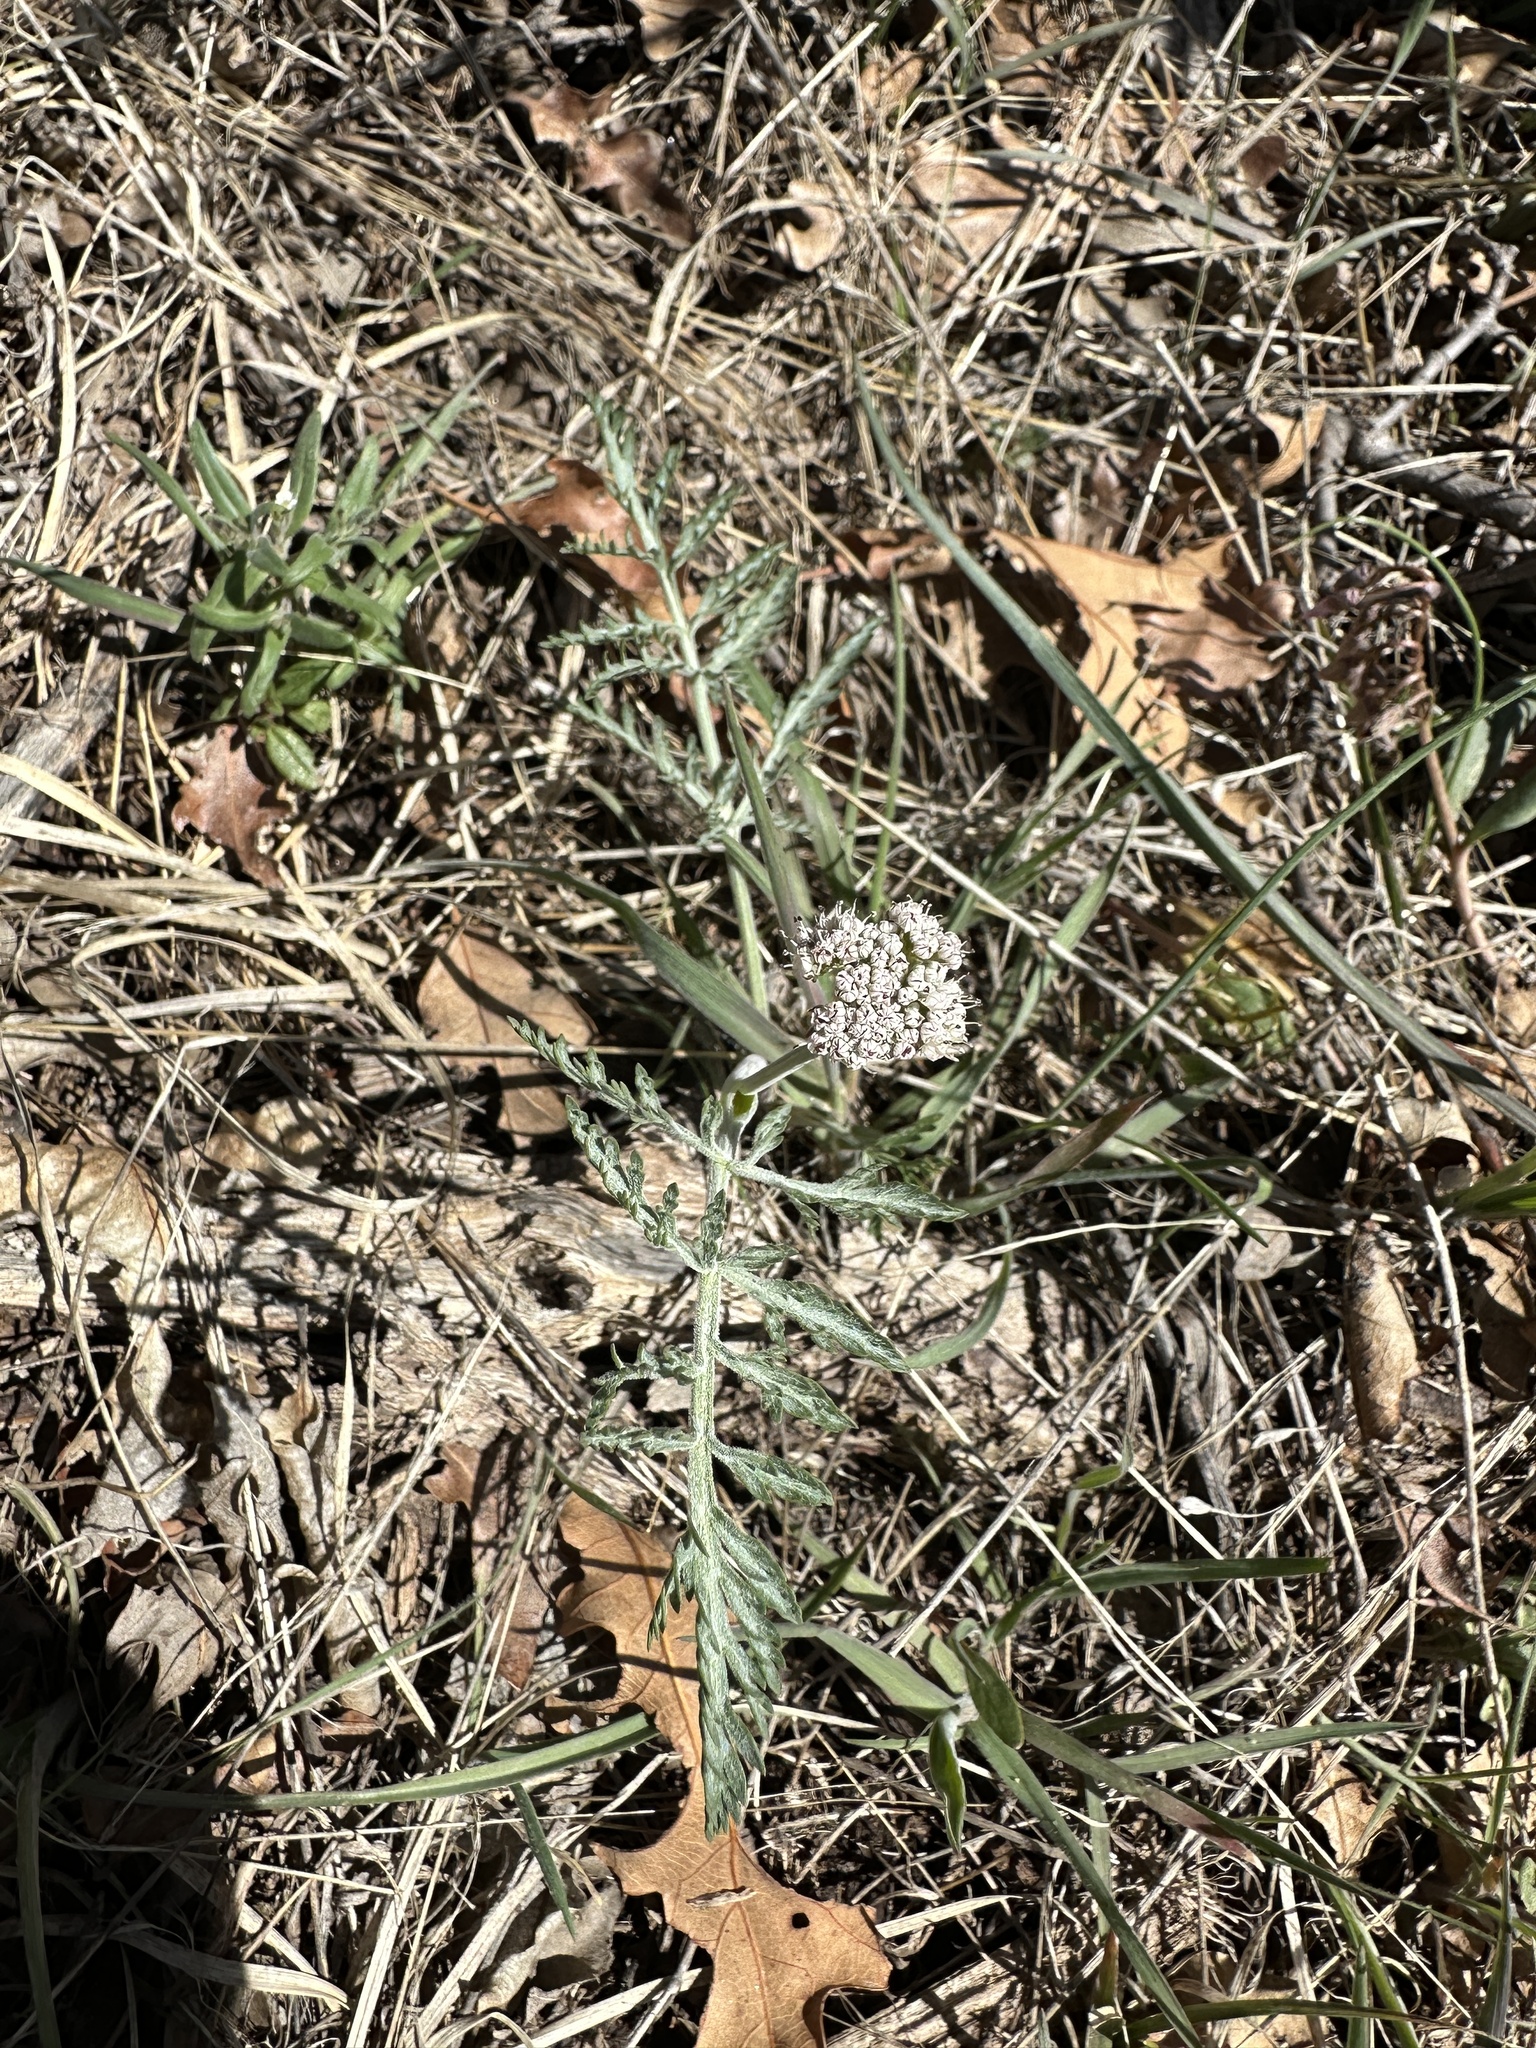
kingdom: Plantae
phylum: Tracheophyta
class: Magnoliopsida
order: Apiales
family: Apiaceae
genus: Lomatium
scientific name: Lomatium orientale
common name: Eastern cous
